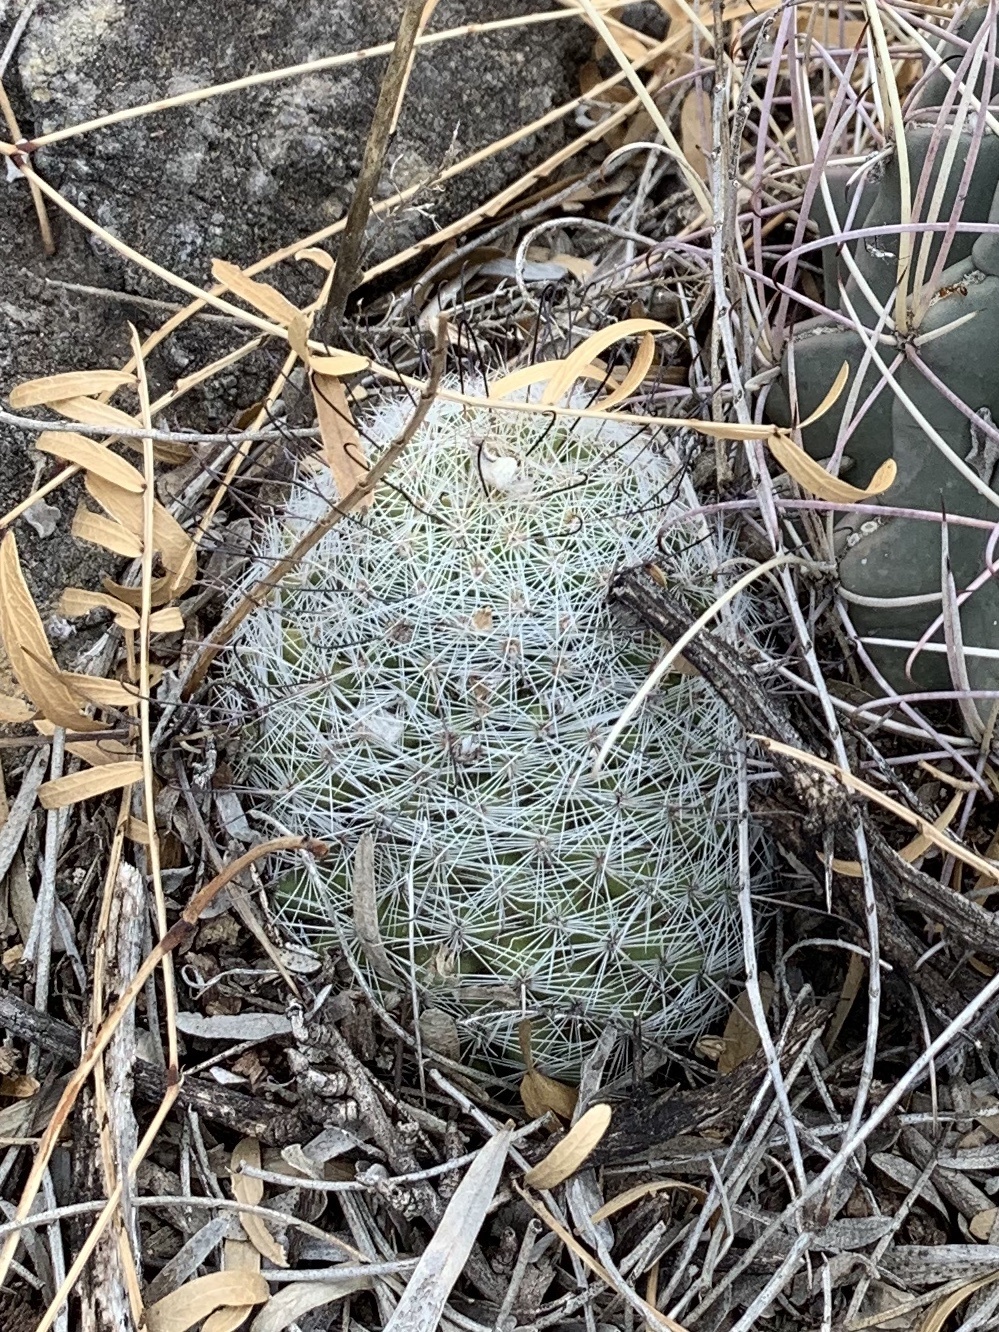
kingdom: Plantae
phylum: Tracheophyta
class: Magnoliopsida
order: Caryophyllales
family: Cactaceae
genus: Cochemiea
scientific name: Cochemiea grahamii
